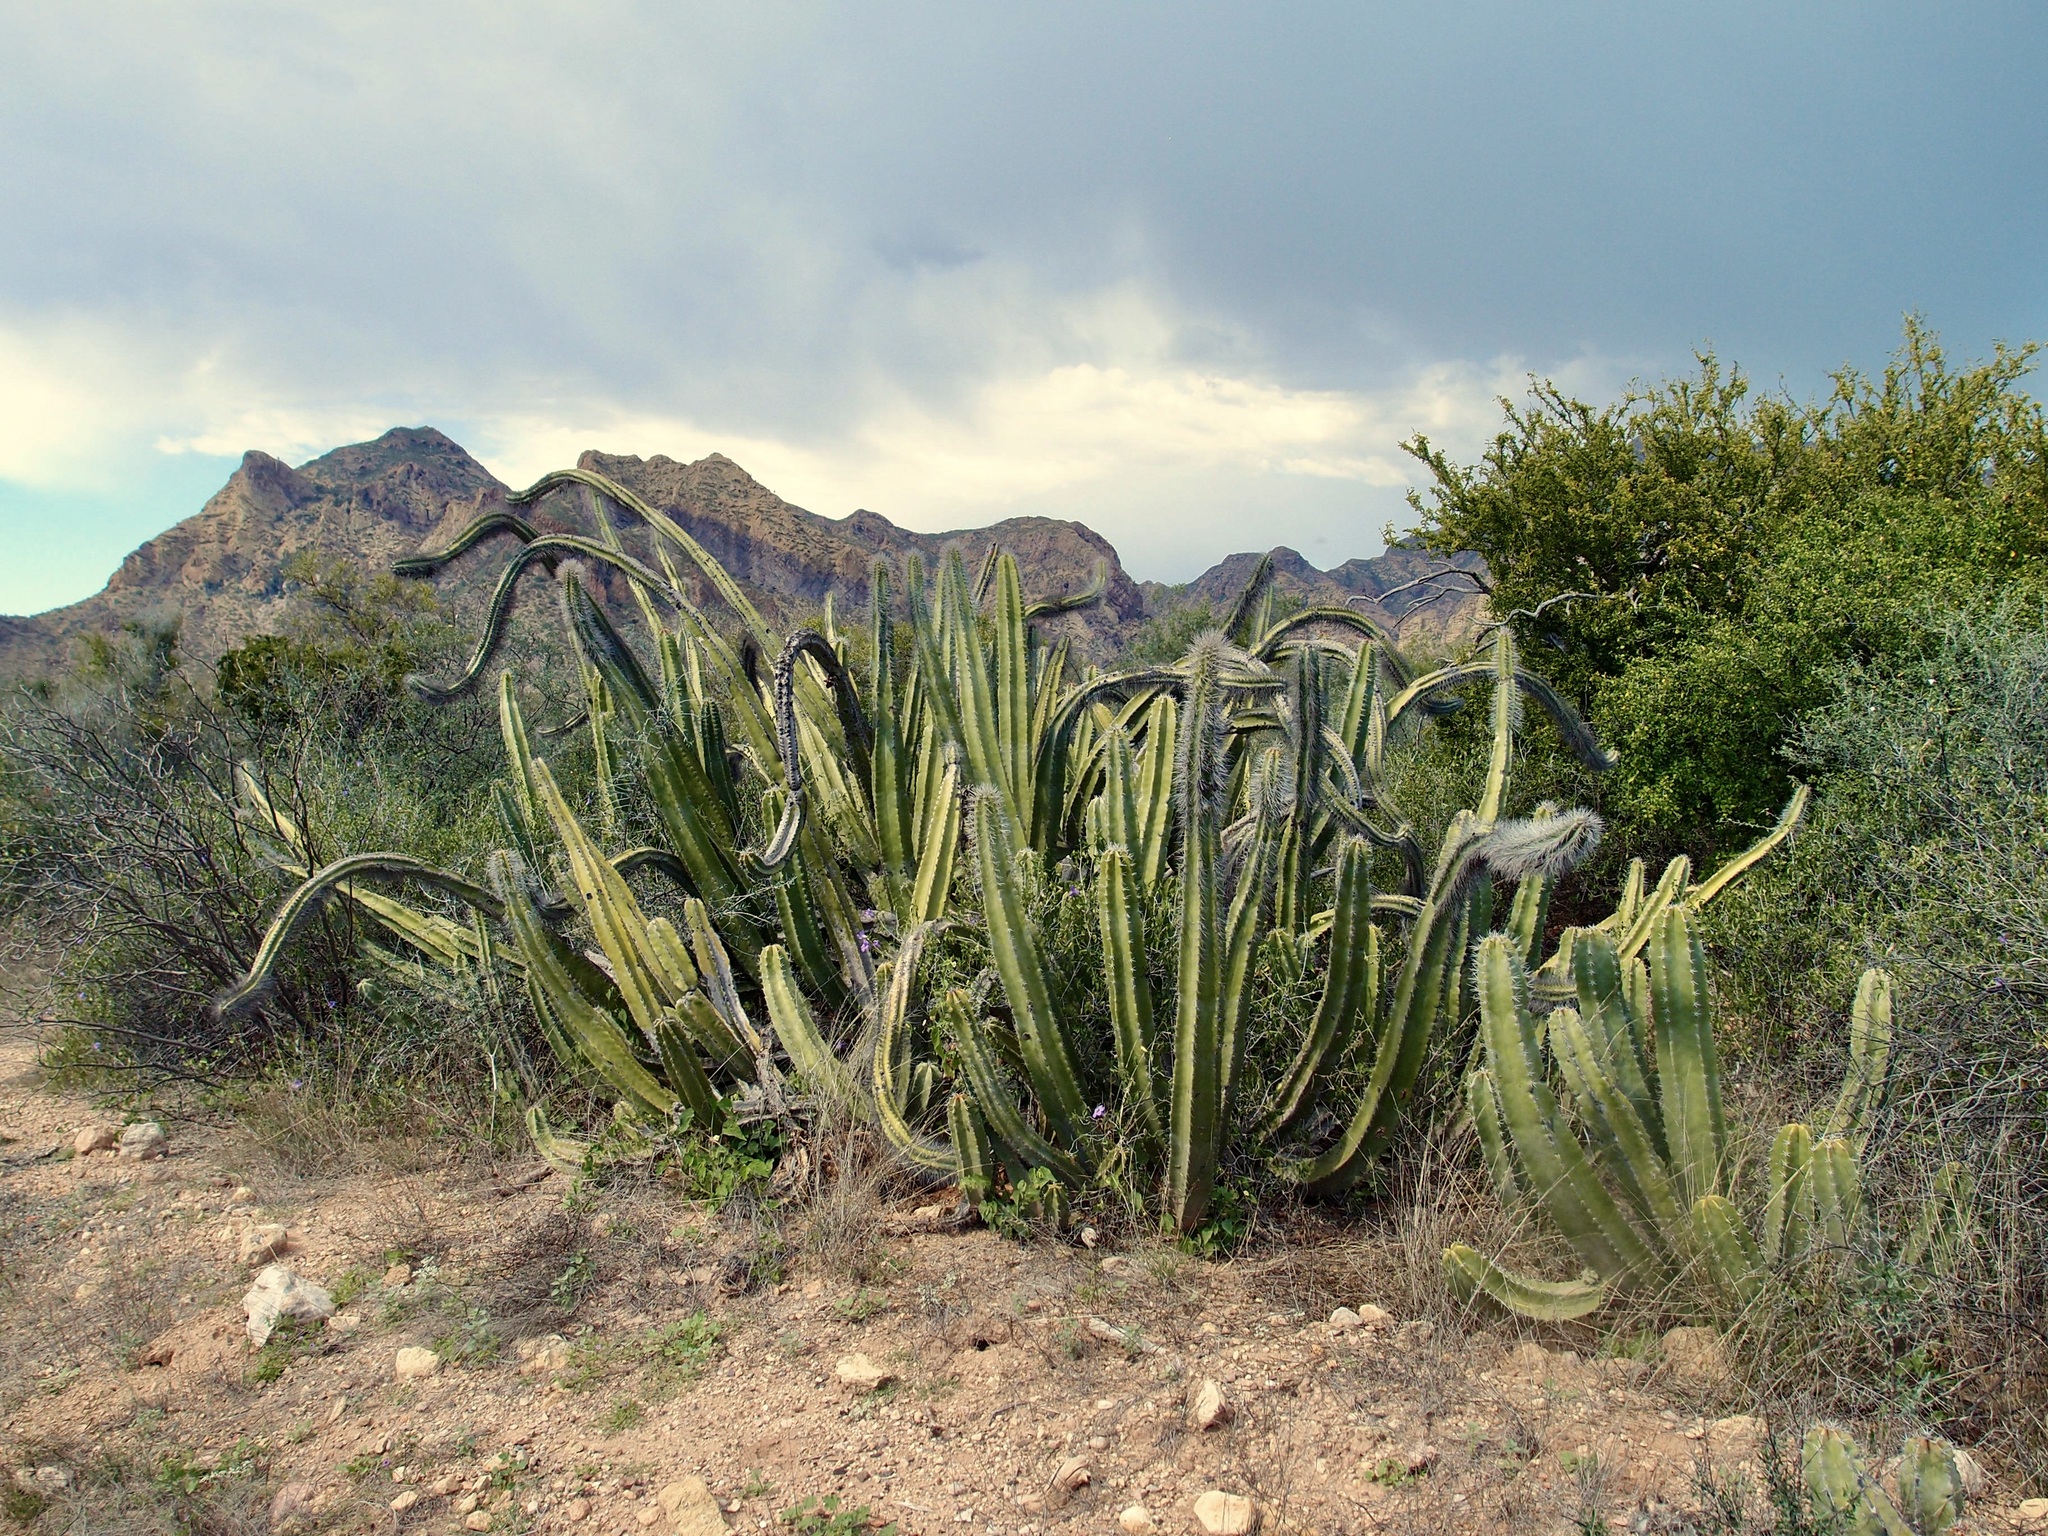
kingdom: Plantae
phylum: Tracheophyta
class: Magnoliopsida
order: Caryophyllales
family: Cactaceae
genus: Pachycereus
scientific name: Pachycereus schottii
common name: Senita cactus
